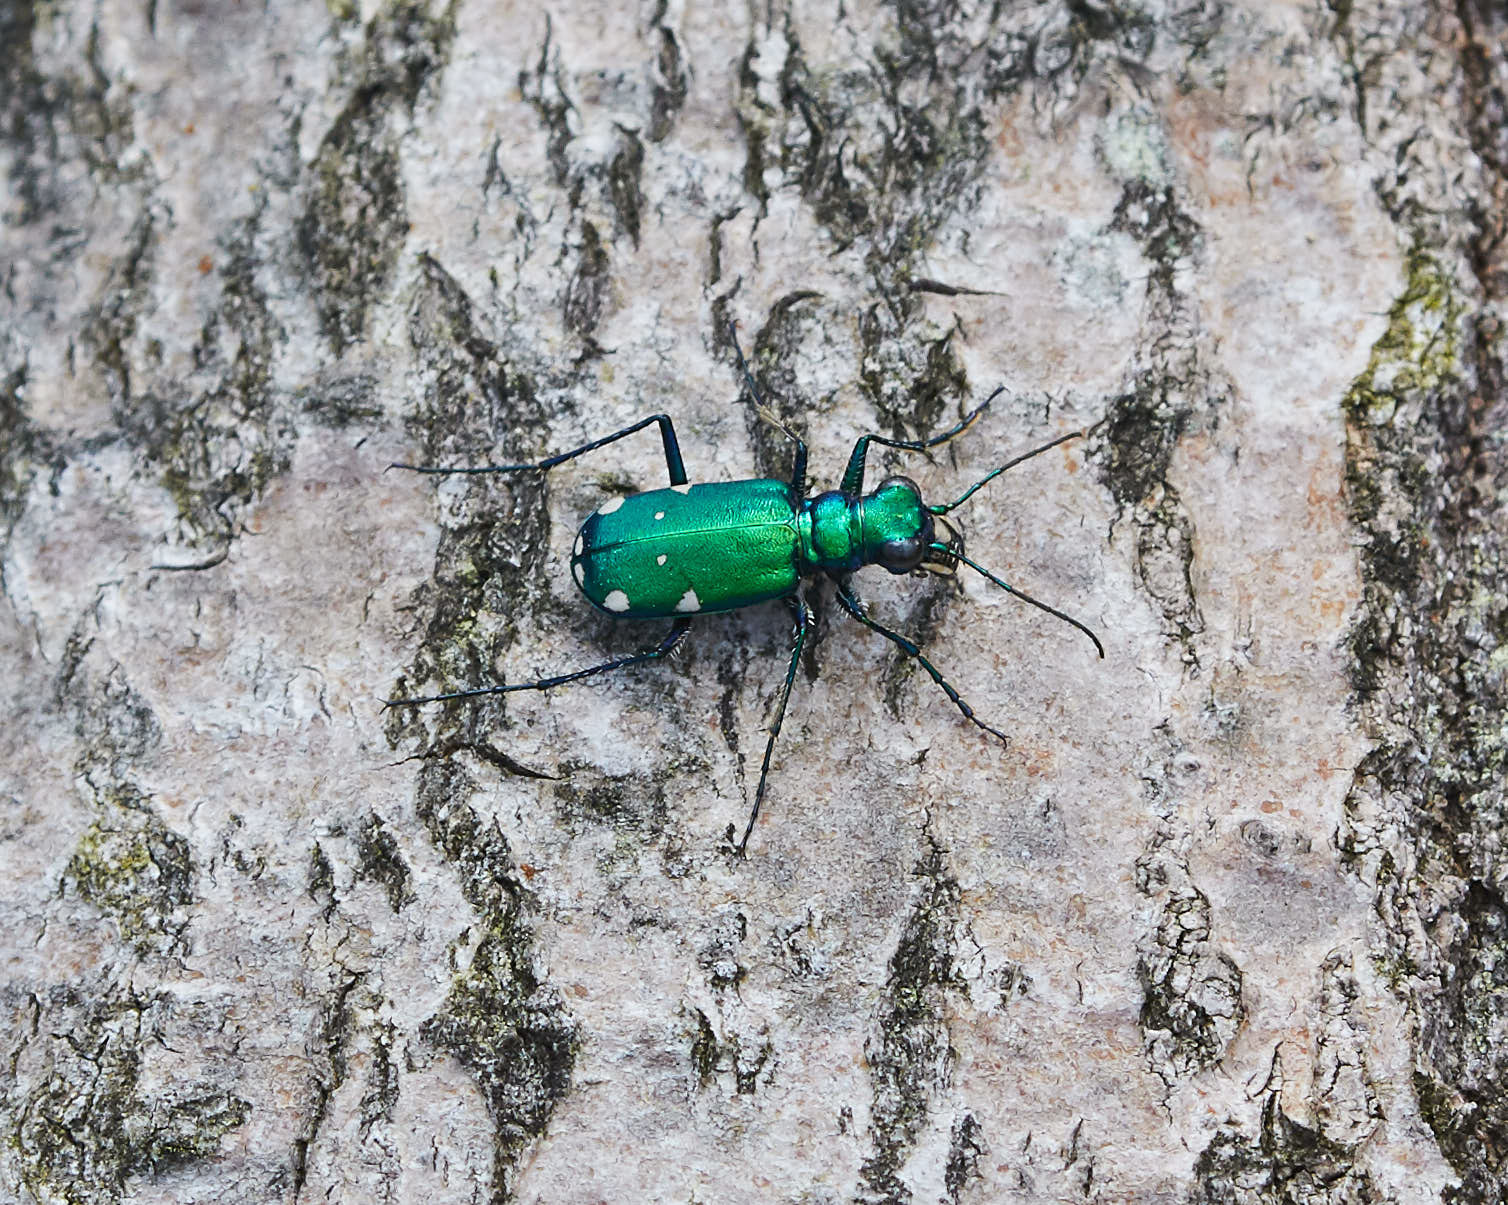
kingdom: Animalia
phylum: Arthropoda
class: Insecta
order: Coleoptera
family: Carabidae
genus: Cicindela
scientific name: Cicindela sexguttata
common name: Six-spotted tiger beetle
